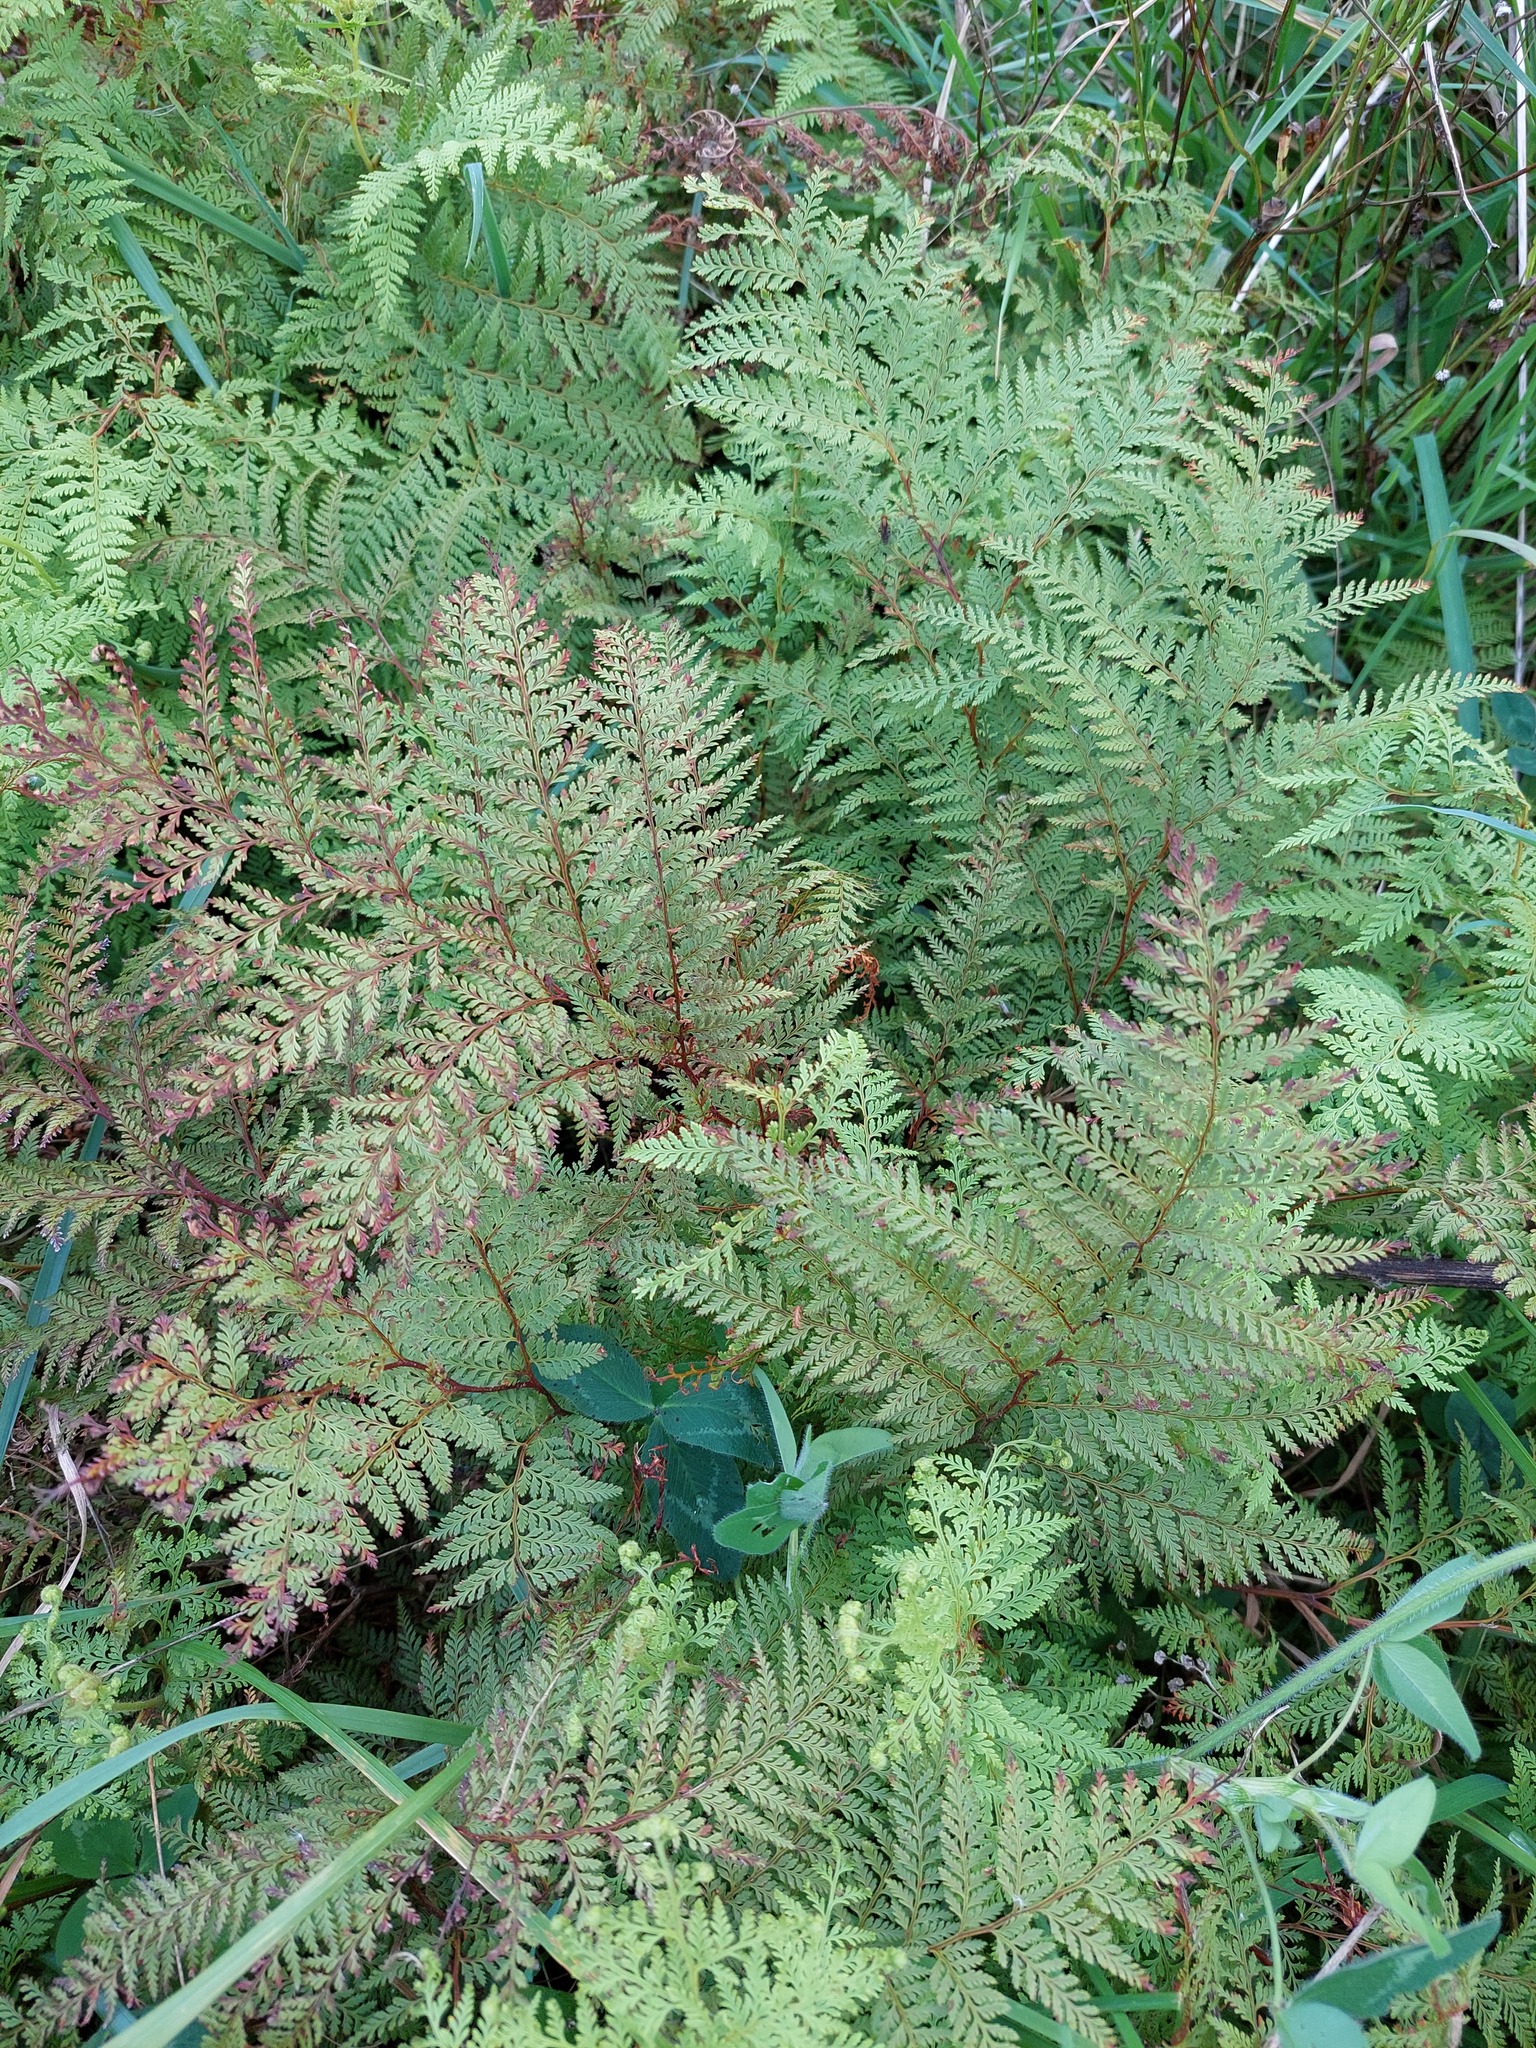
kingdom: Plantae
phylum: Tracheophyta
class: Polypodiopsida
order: Polypodiales
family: Dennstaedtiaceae
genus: Paesia
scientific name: Paesia scaberula
